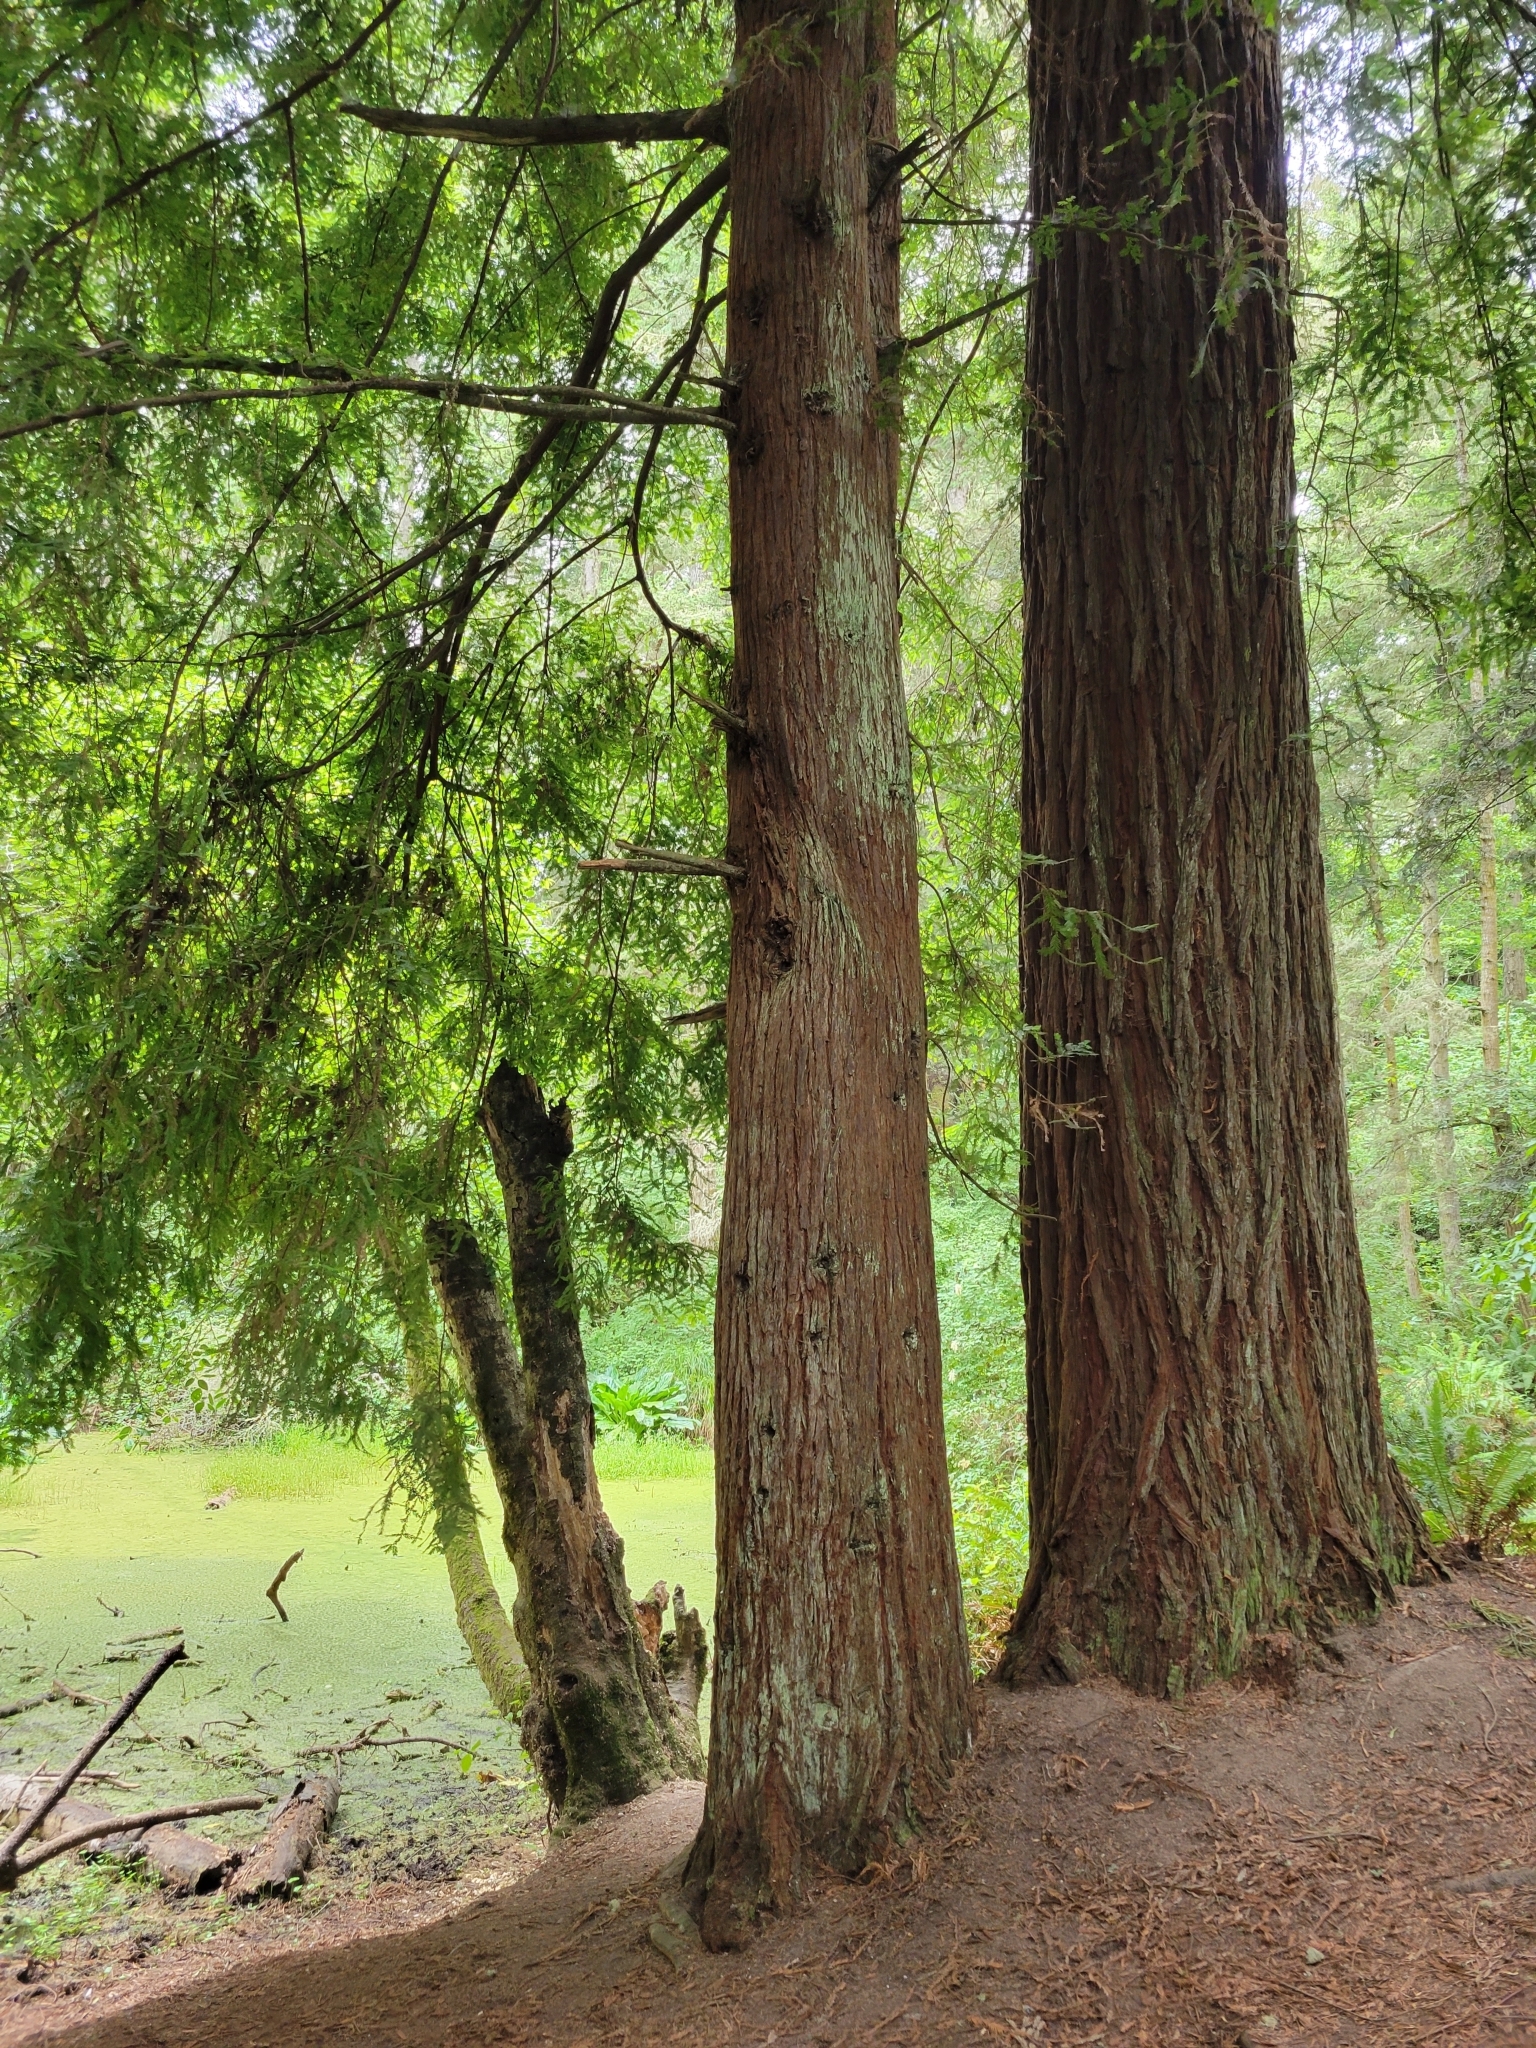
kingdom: Plantae
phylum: Tracheophyta
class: Pinopsida
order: Pinales
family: Cupressaceae
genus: Sequoia
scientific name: Sequoia sempervirens
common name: Coast redwood
